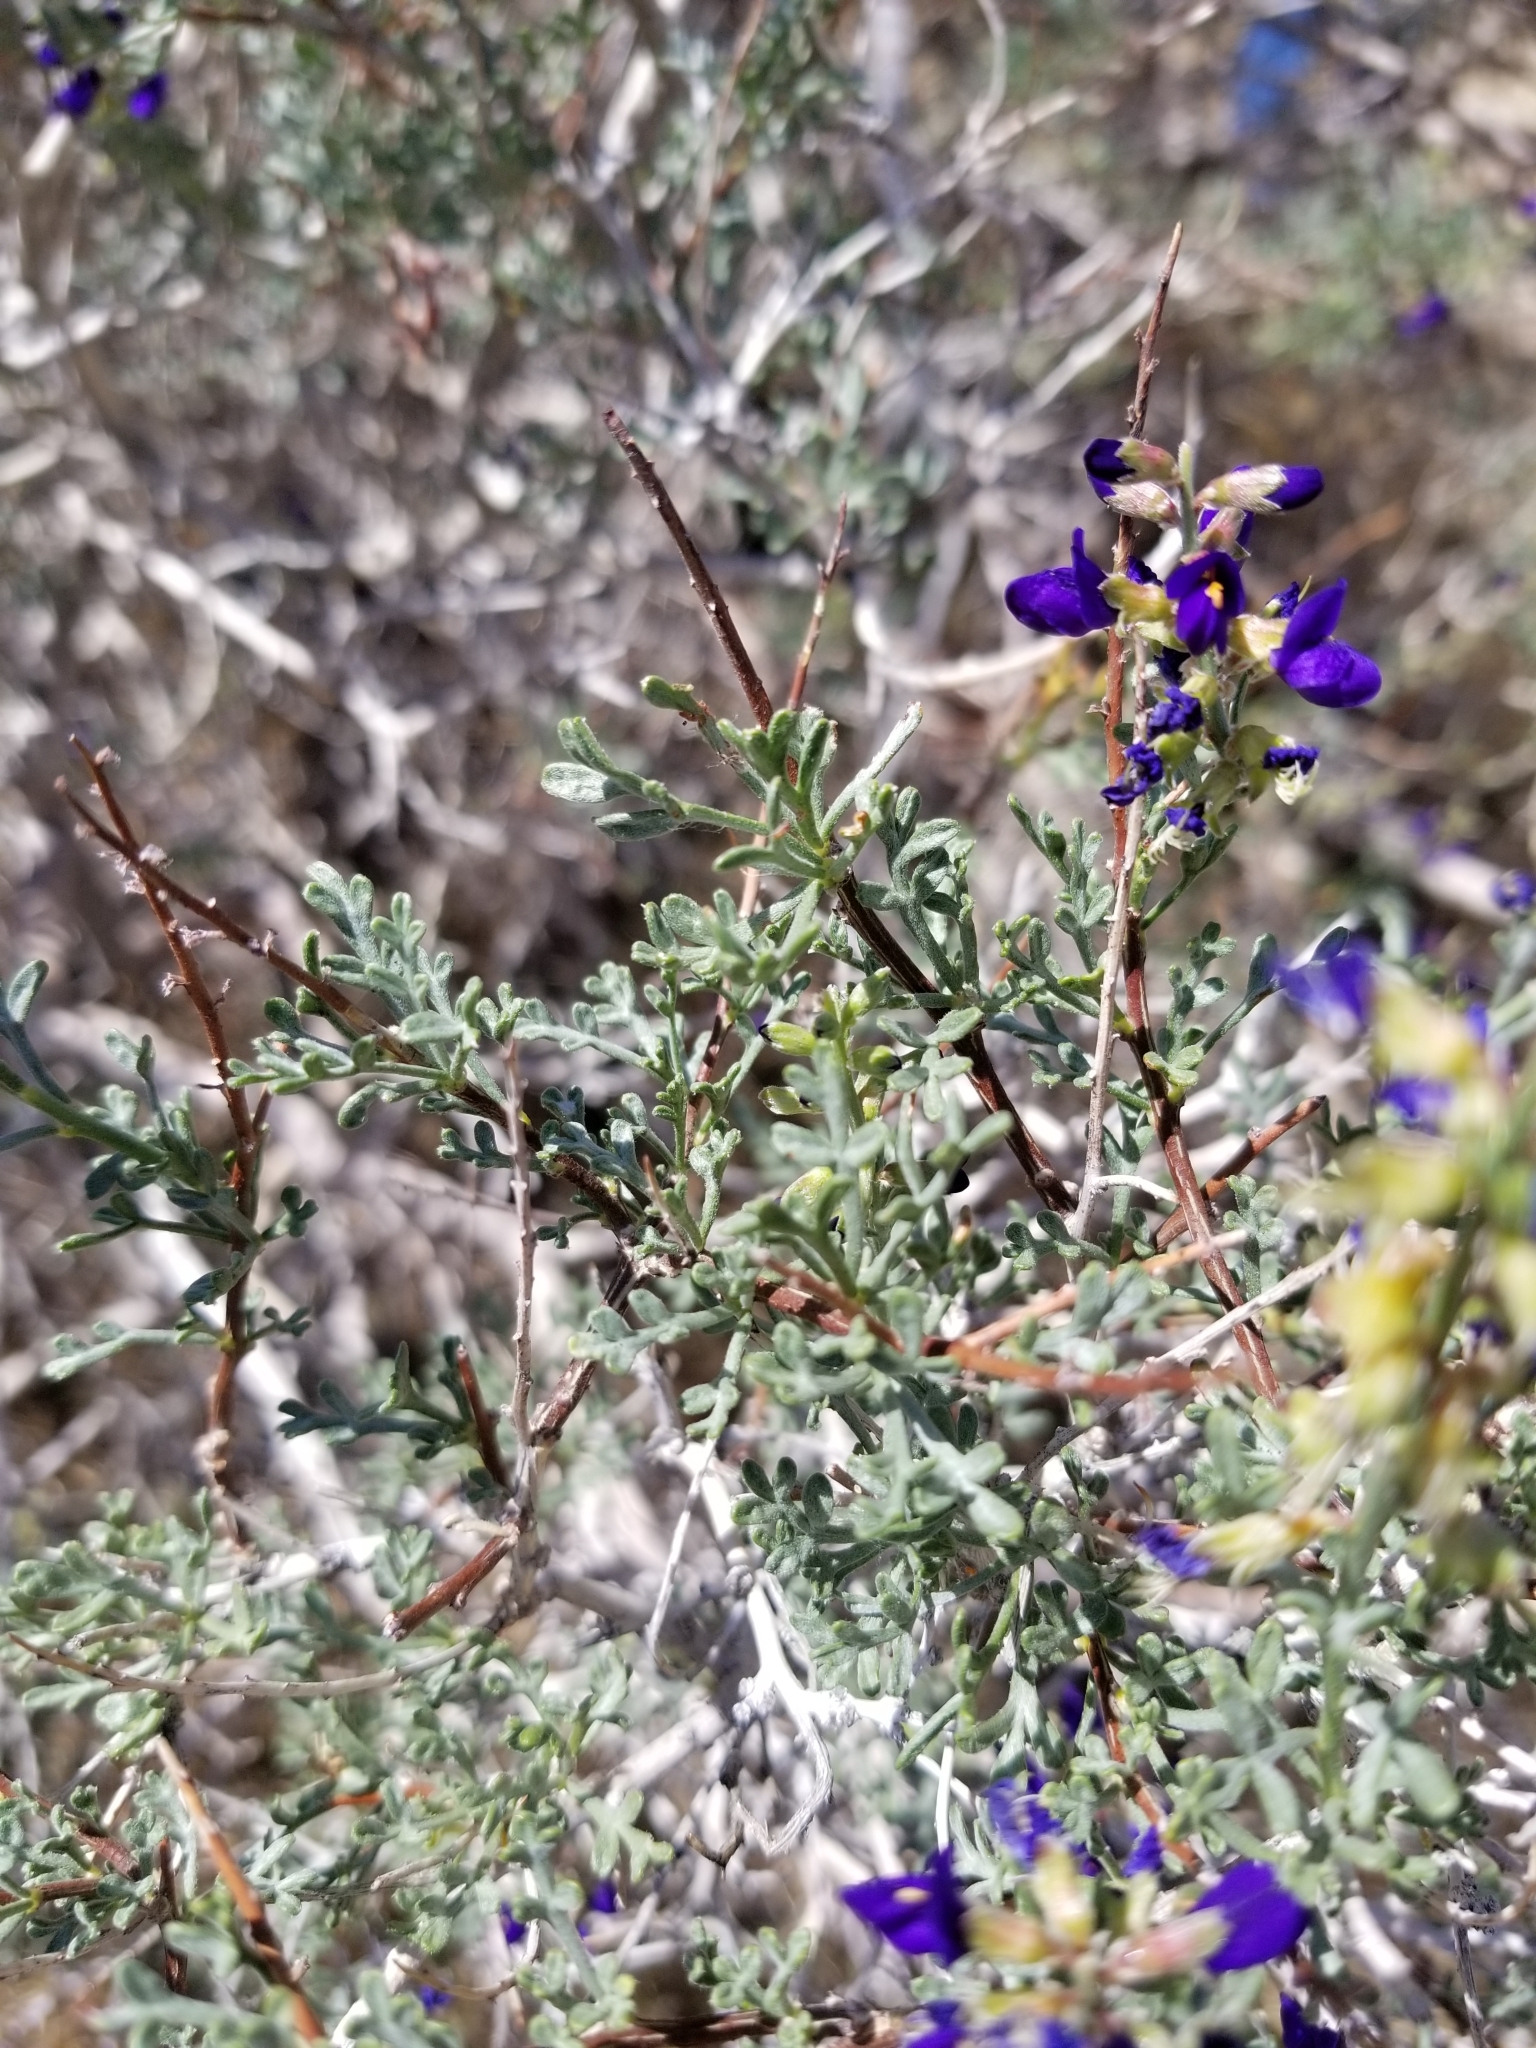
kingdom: Plantae
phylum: Tracheophyta
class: Magnoliopsida
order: Fabales
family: Fabaceae
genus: Psorothamnus
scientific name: Psorothamnus arborescens
